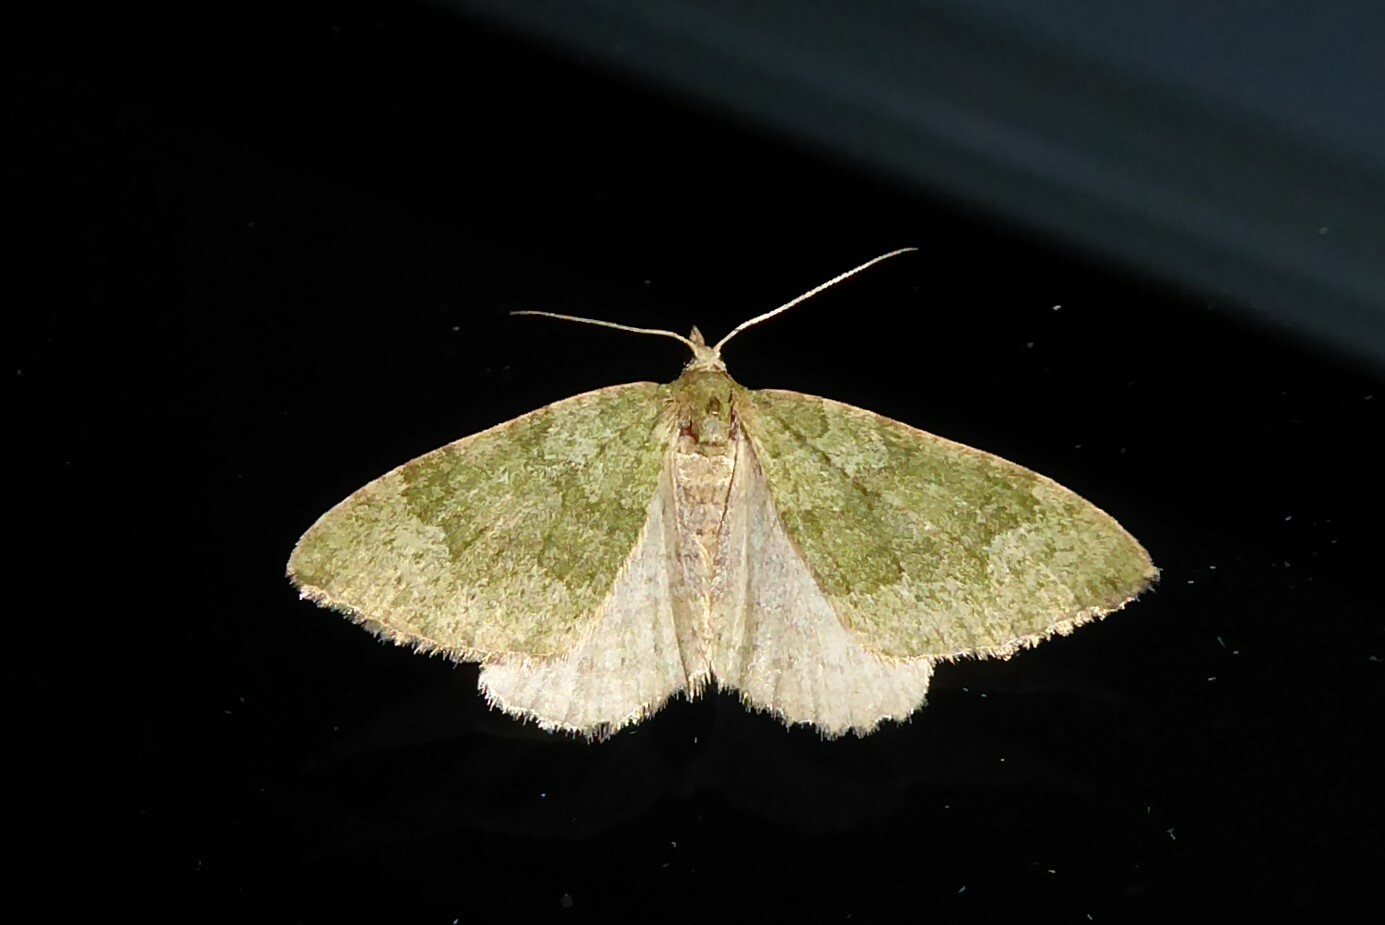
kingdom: Animalia
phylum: Arthropoda
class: Insecta
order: Lepidoptera
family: Geometridae
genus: Epyaxa
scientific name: Epyaxa rosearia
